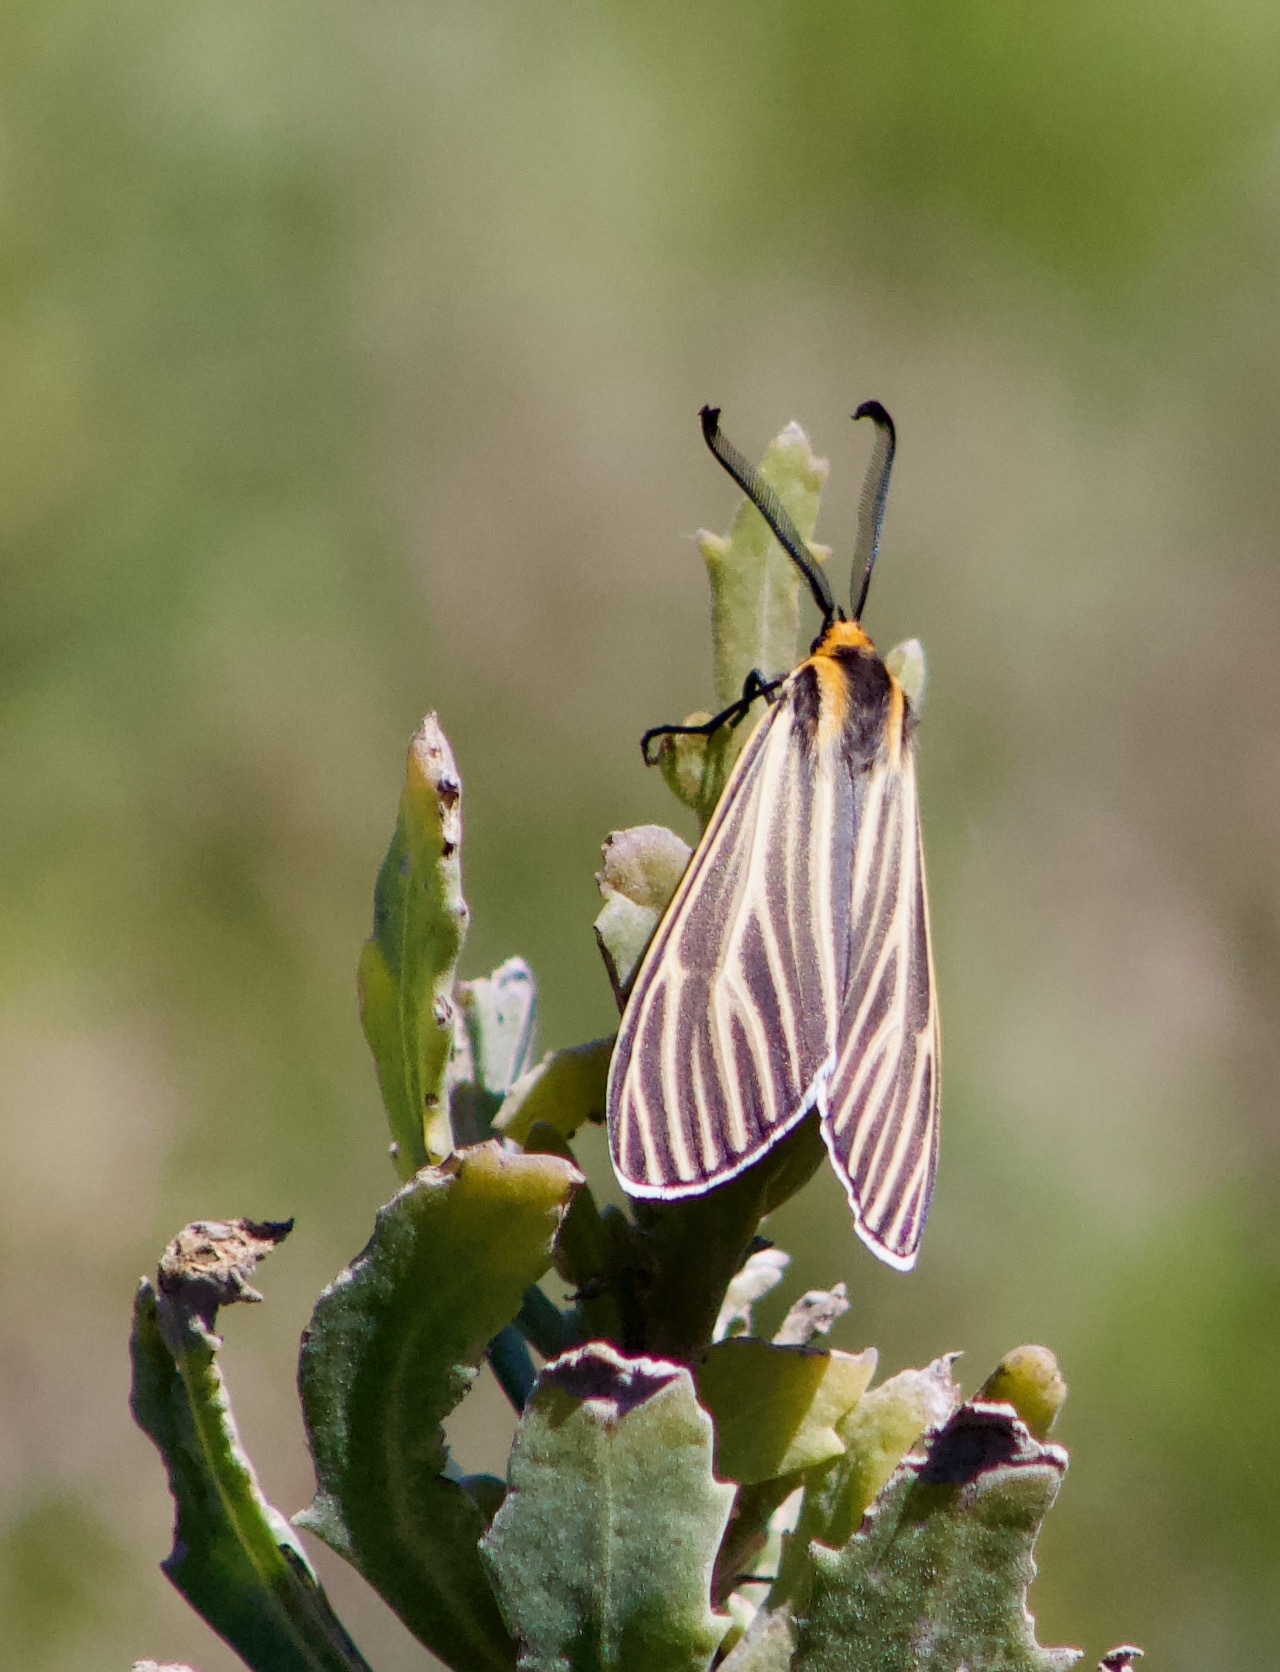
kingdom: Animalia
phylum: Arthropoda
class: Insecta
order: Lepidoptera
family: Erebidae
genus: Ctenucha
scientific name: Ctenucha vittigerum
